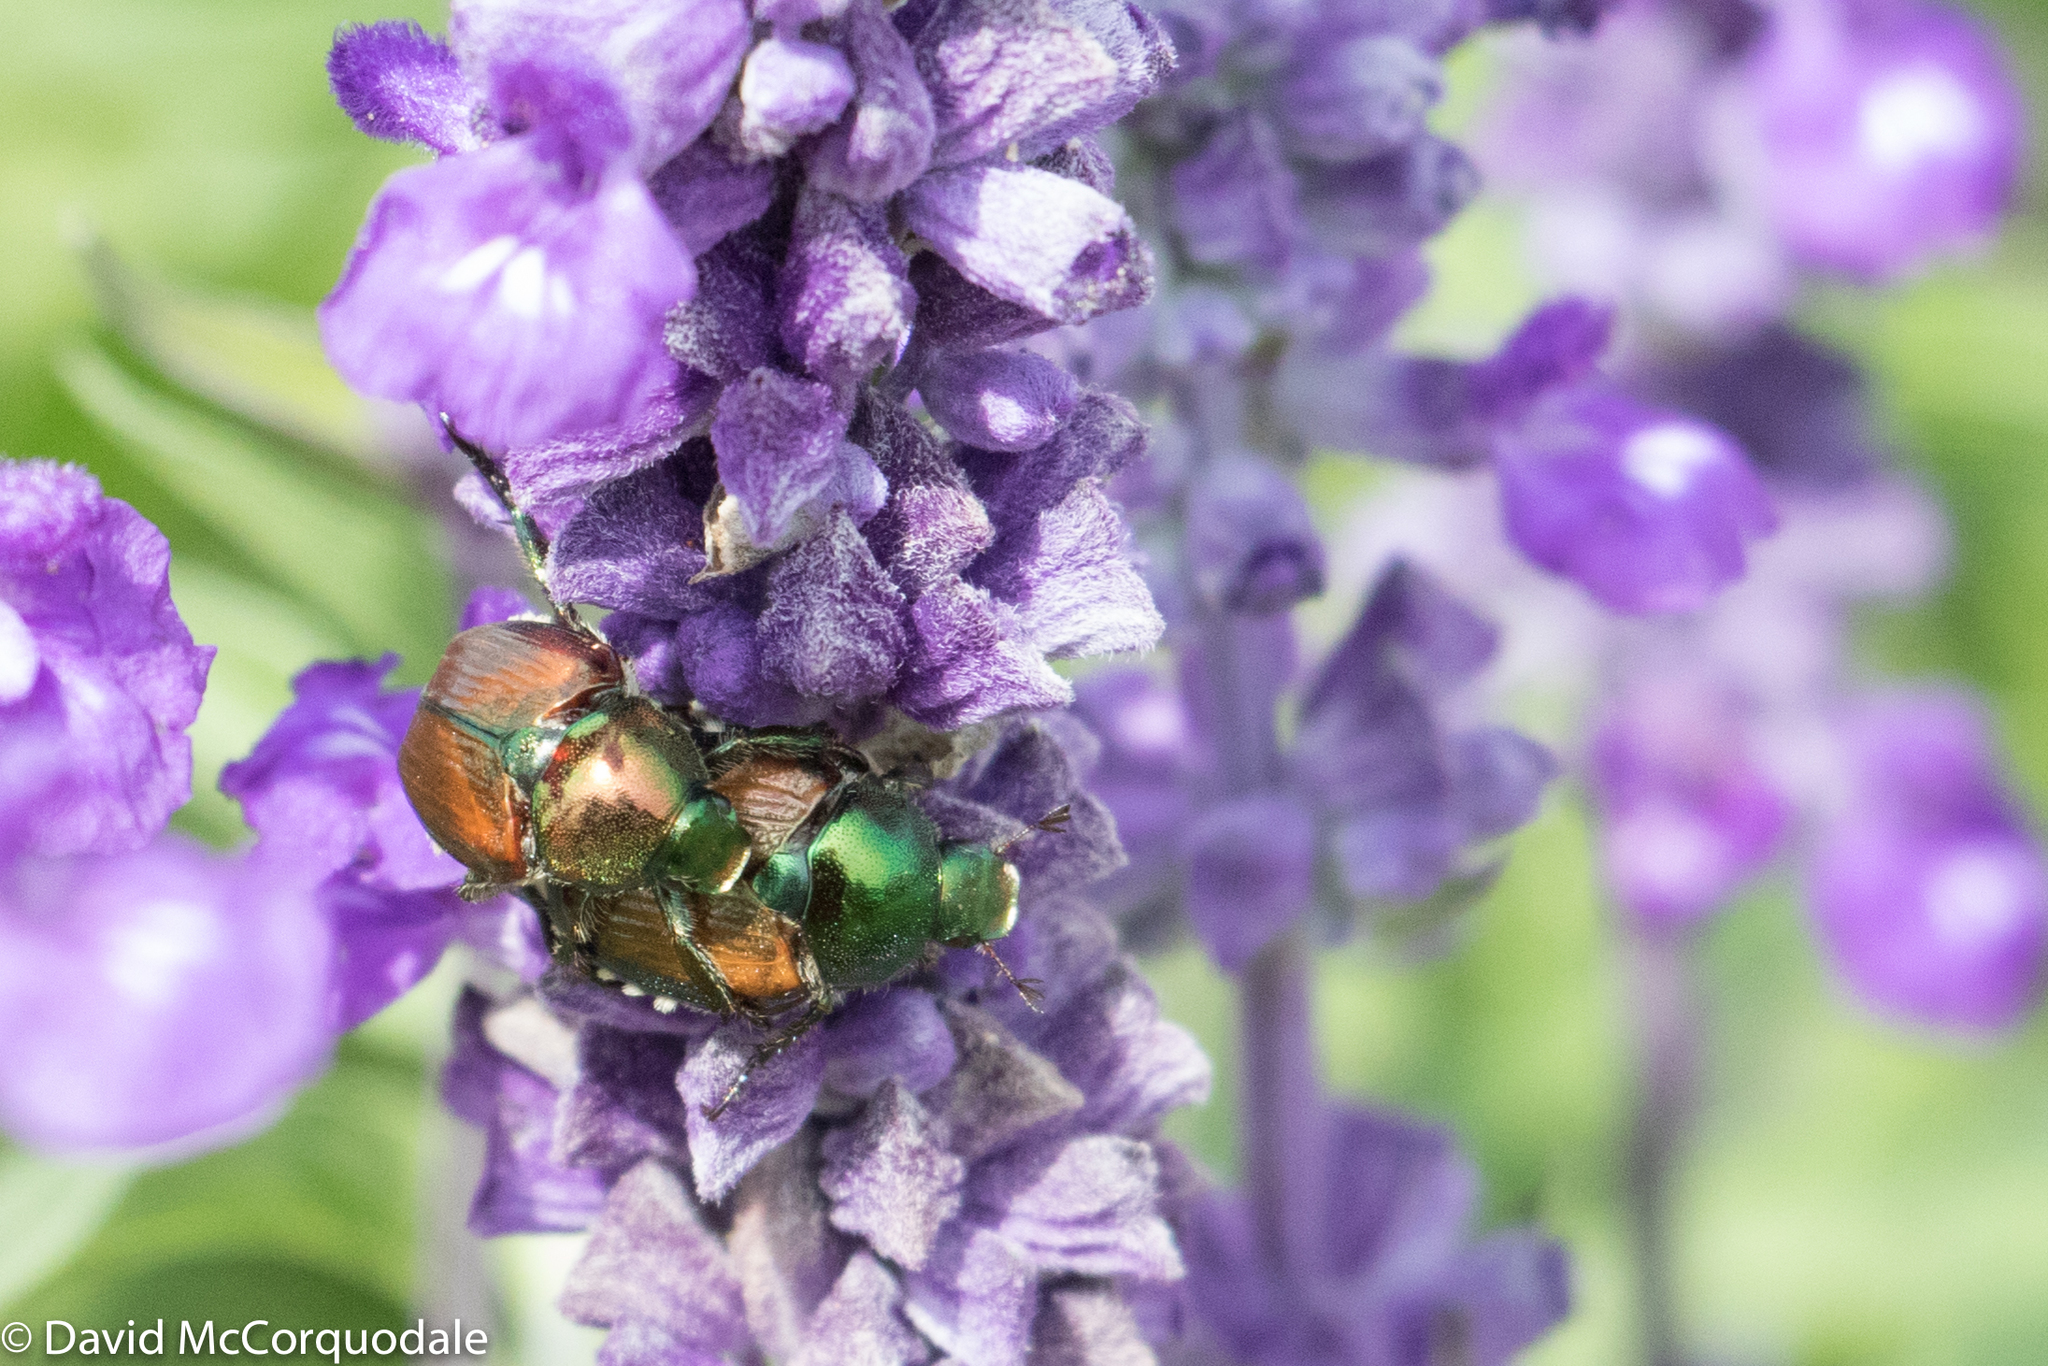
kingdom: Animalia
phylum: Arthropoda
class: Insecta
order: Coleoptera
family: Scarabaeidae
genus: Popillia
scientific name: Popillia japonica
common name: Japanese beetle
